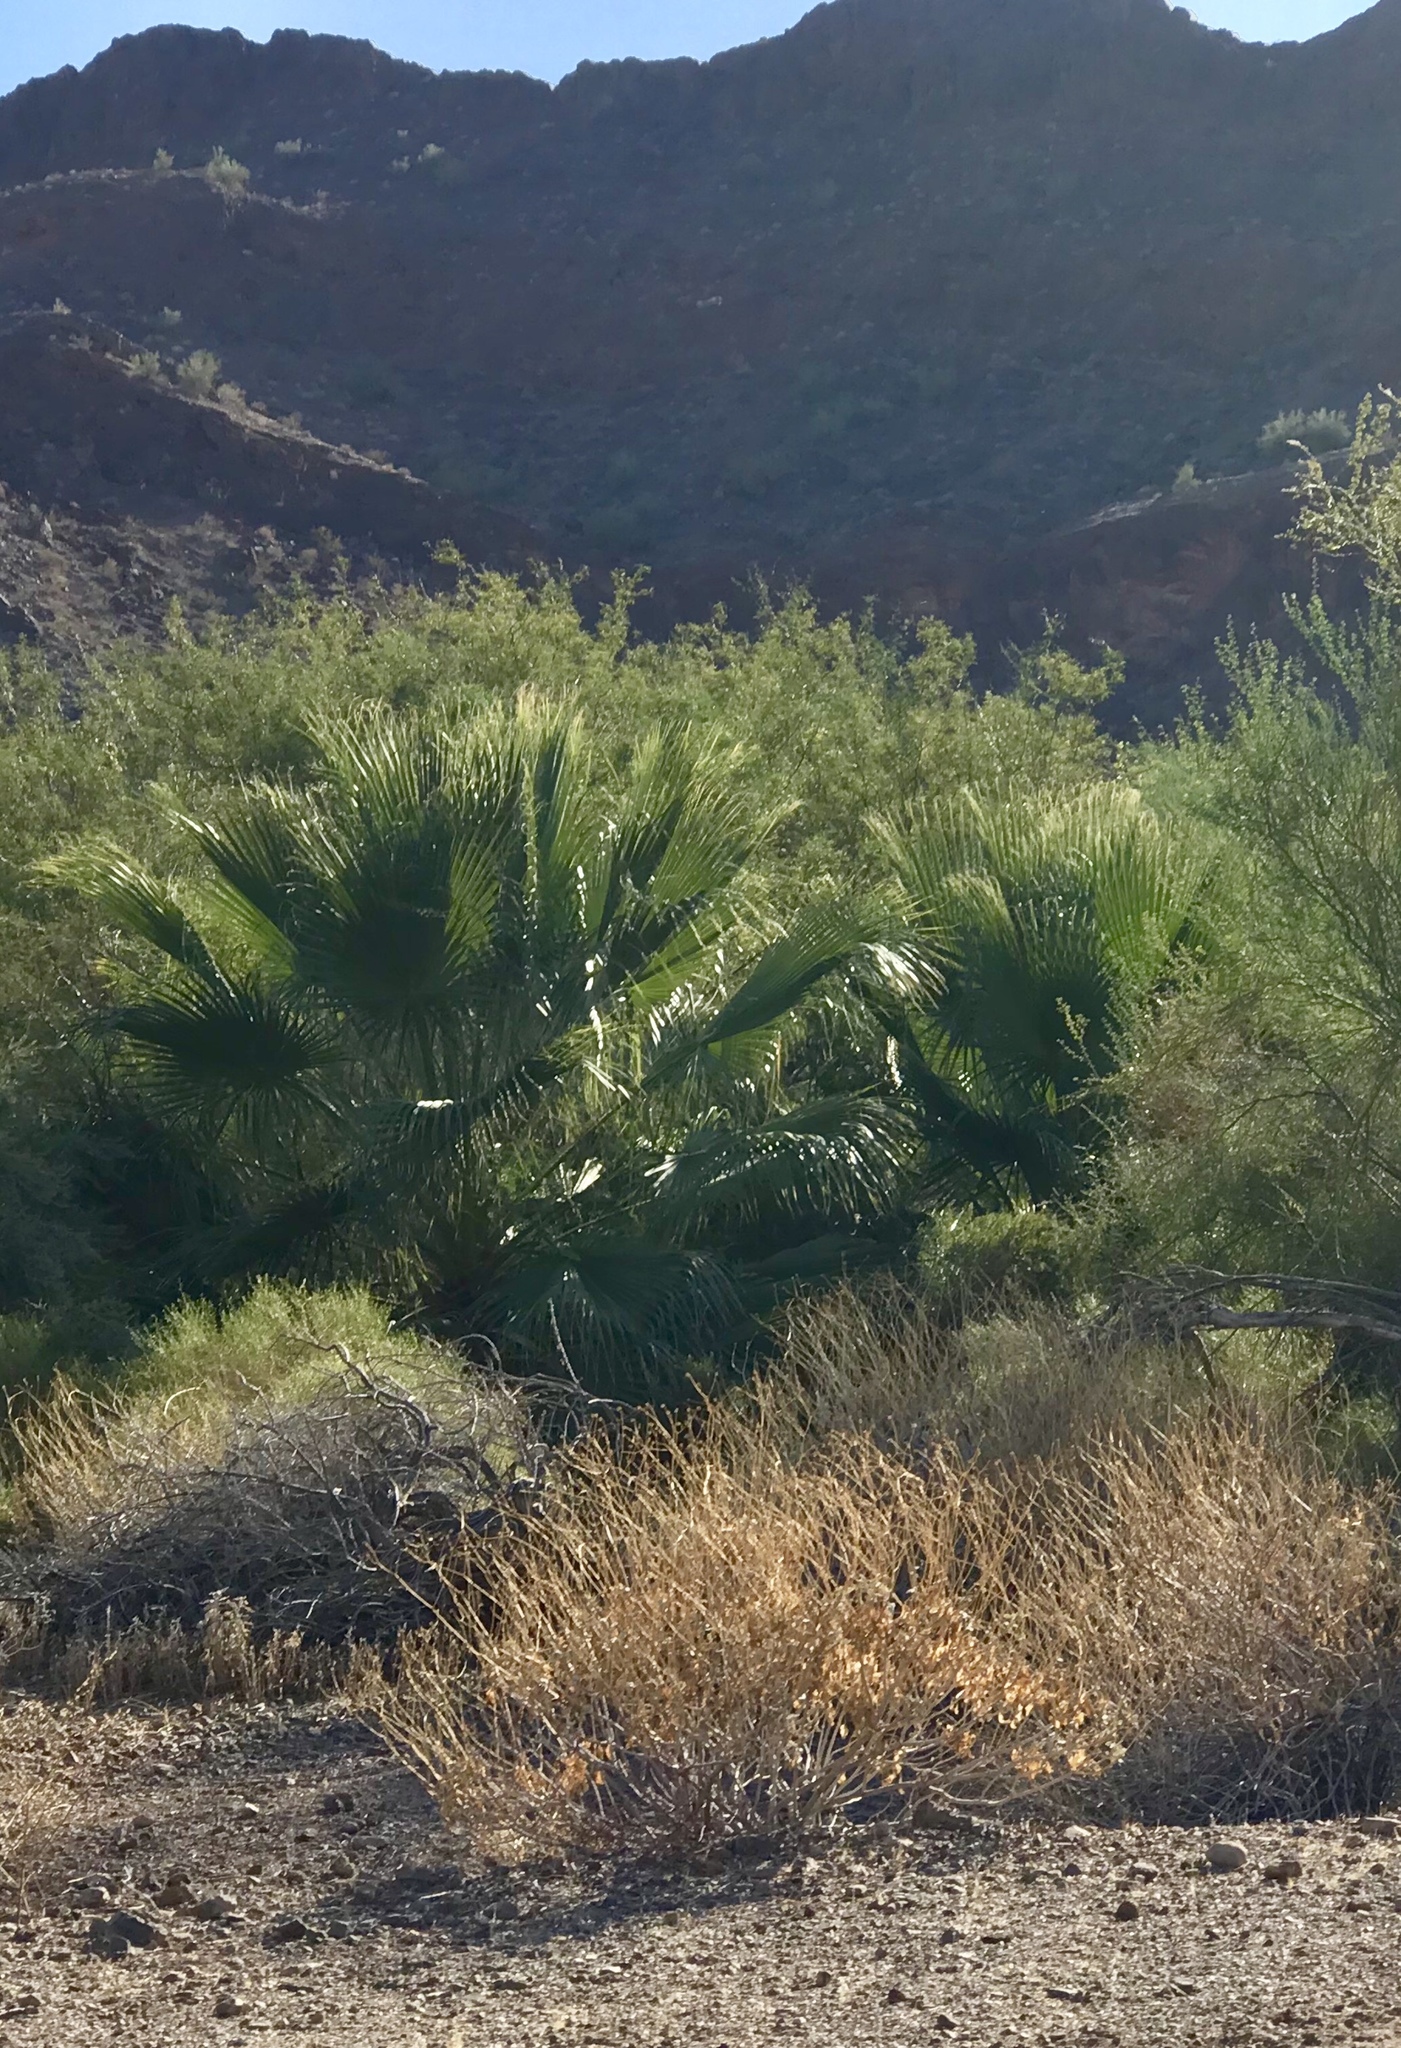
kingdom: Plantae
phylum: Tracheophyta
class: Liliopsida
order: Arecales
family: Arecaceae
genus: Washingtonia
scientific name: Washingtonia filifera
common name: California fan palm
